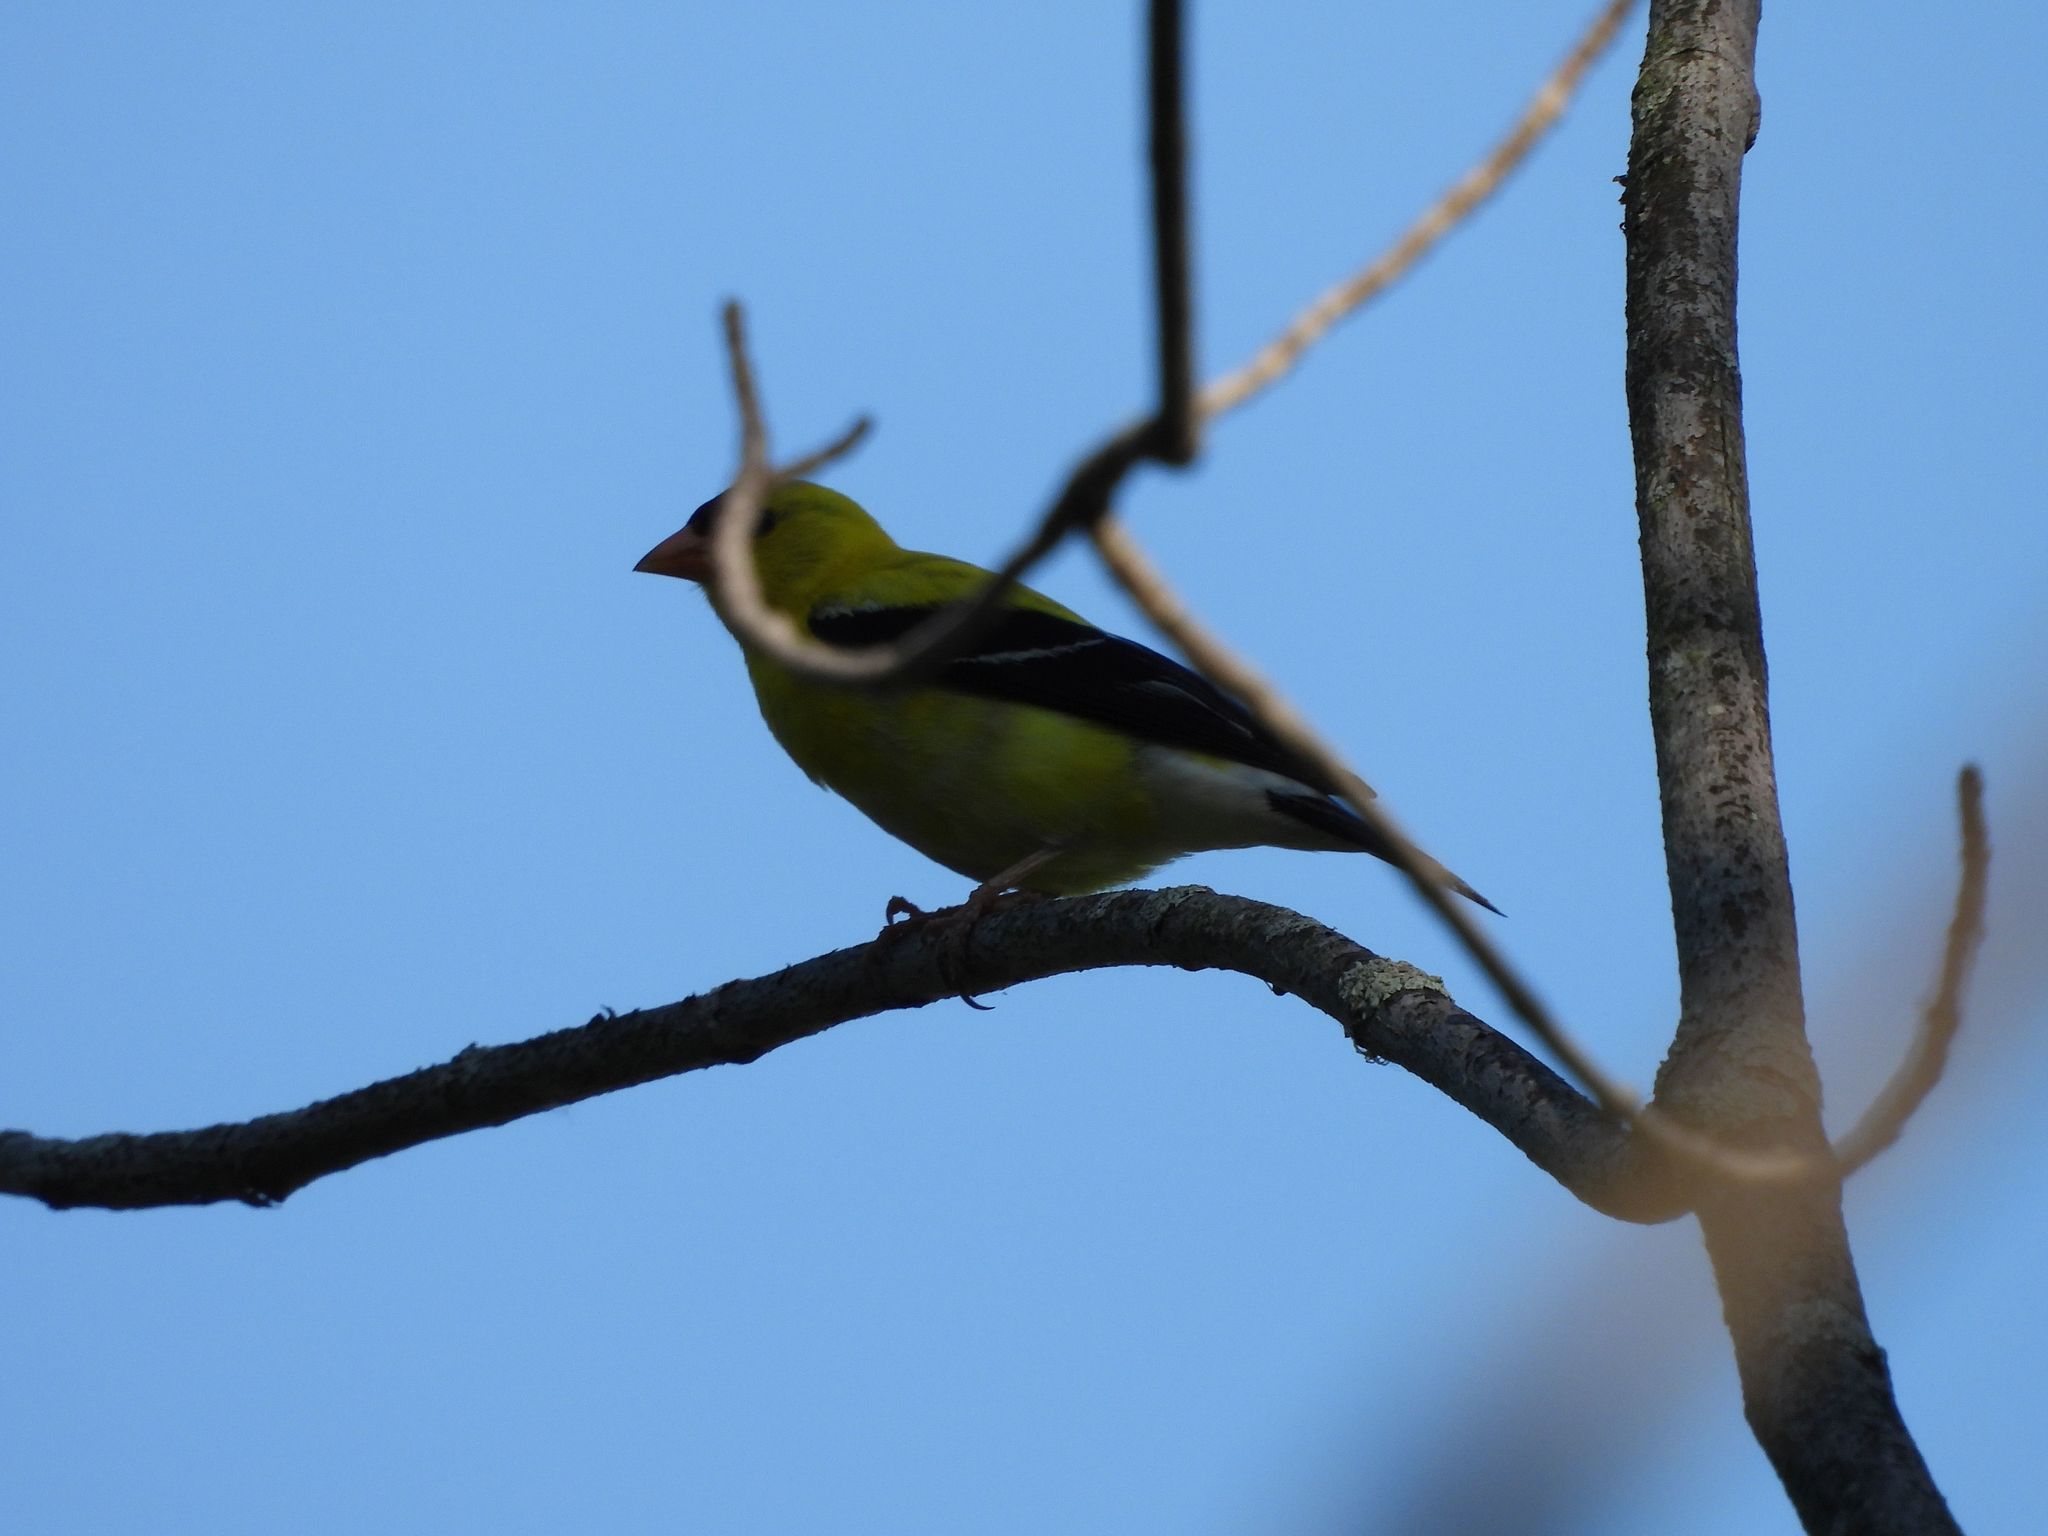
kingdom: Animalia
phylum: Chordata
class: Aves
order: Passeriformes
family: Fringillidae
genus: Spinus
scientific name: Spinus tristis
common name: American goldfinch
